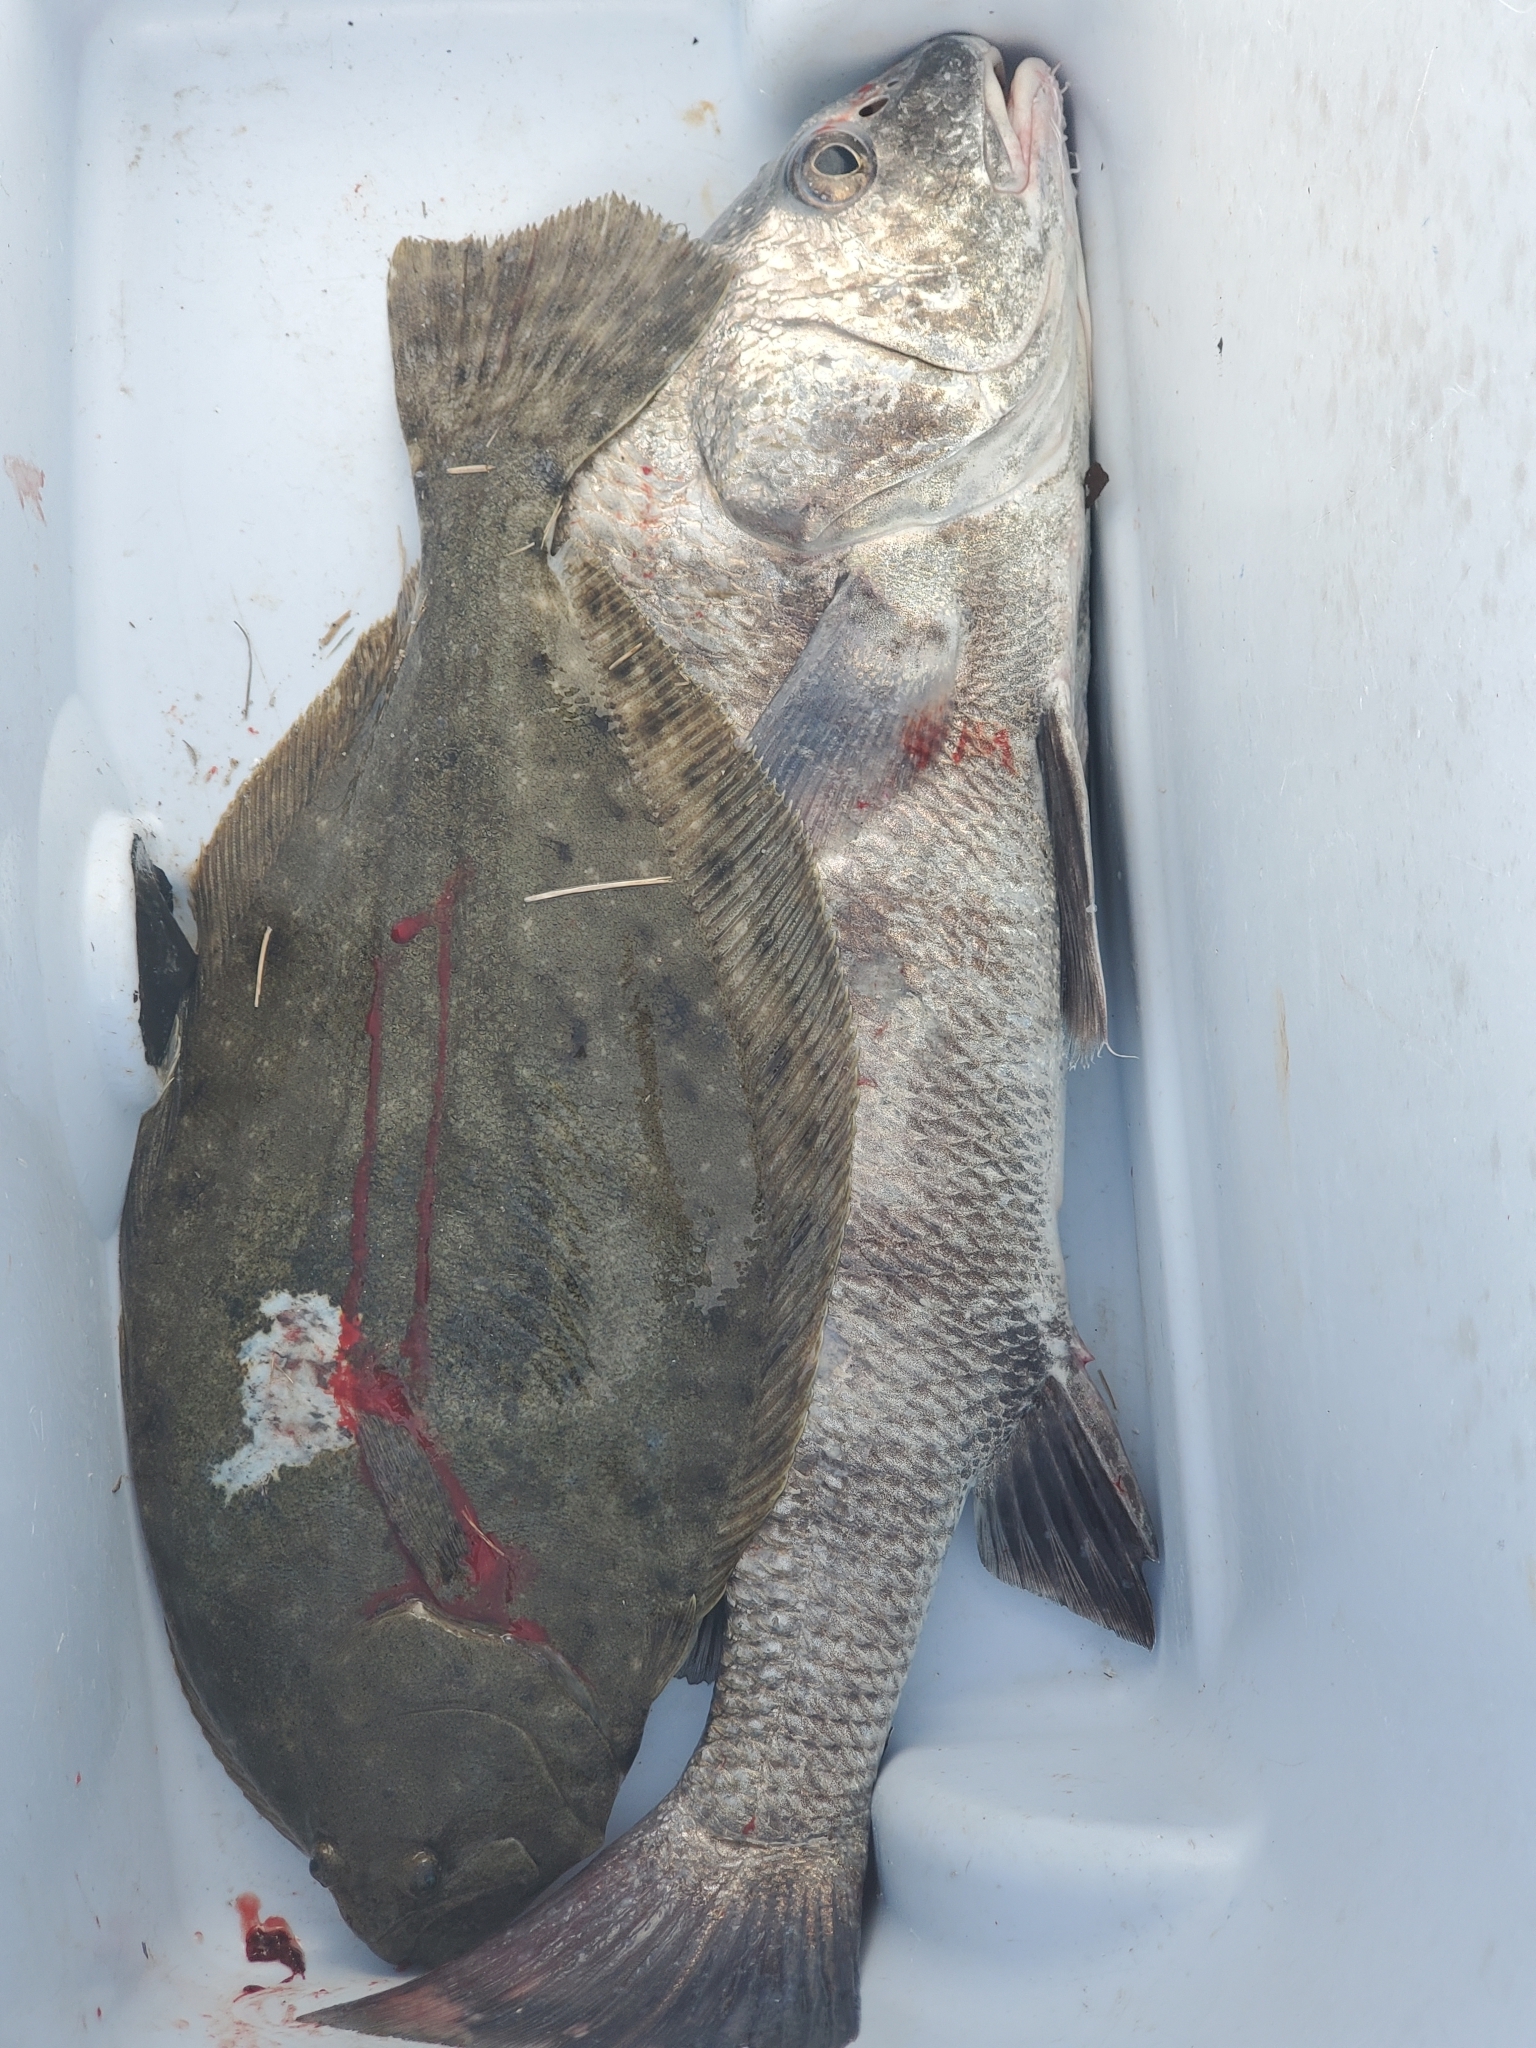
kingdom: Animalia
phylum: Chordata
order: Pleuronectiformes
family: Paralichthyidae
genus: Paralichthys
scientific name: Paralichthys lethostigma
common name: Southern flounder
